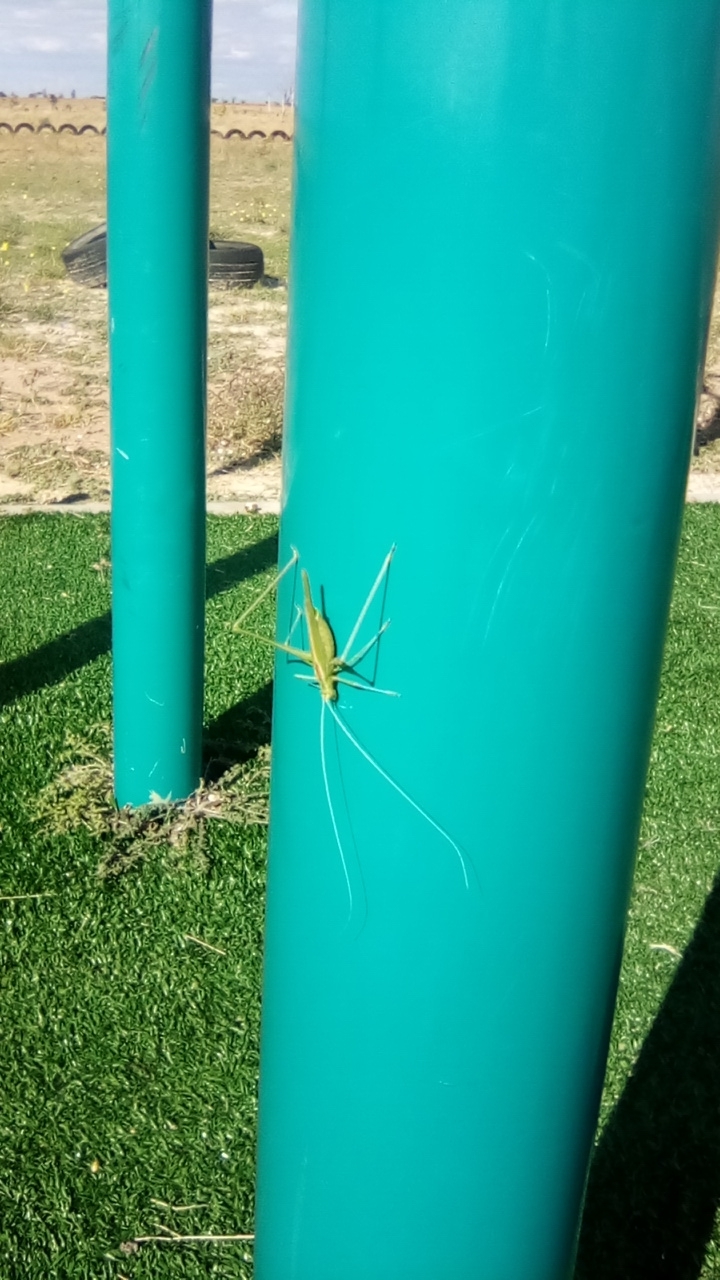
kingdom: Animalia
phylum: Arthropoda
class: Insecta
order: Orthoptera
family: Tettigoniidae
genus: Tylopsis
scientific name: Tylopsis lilifolia
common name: Lily bush-cricket
